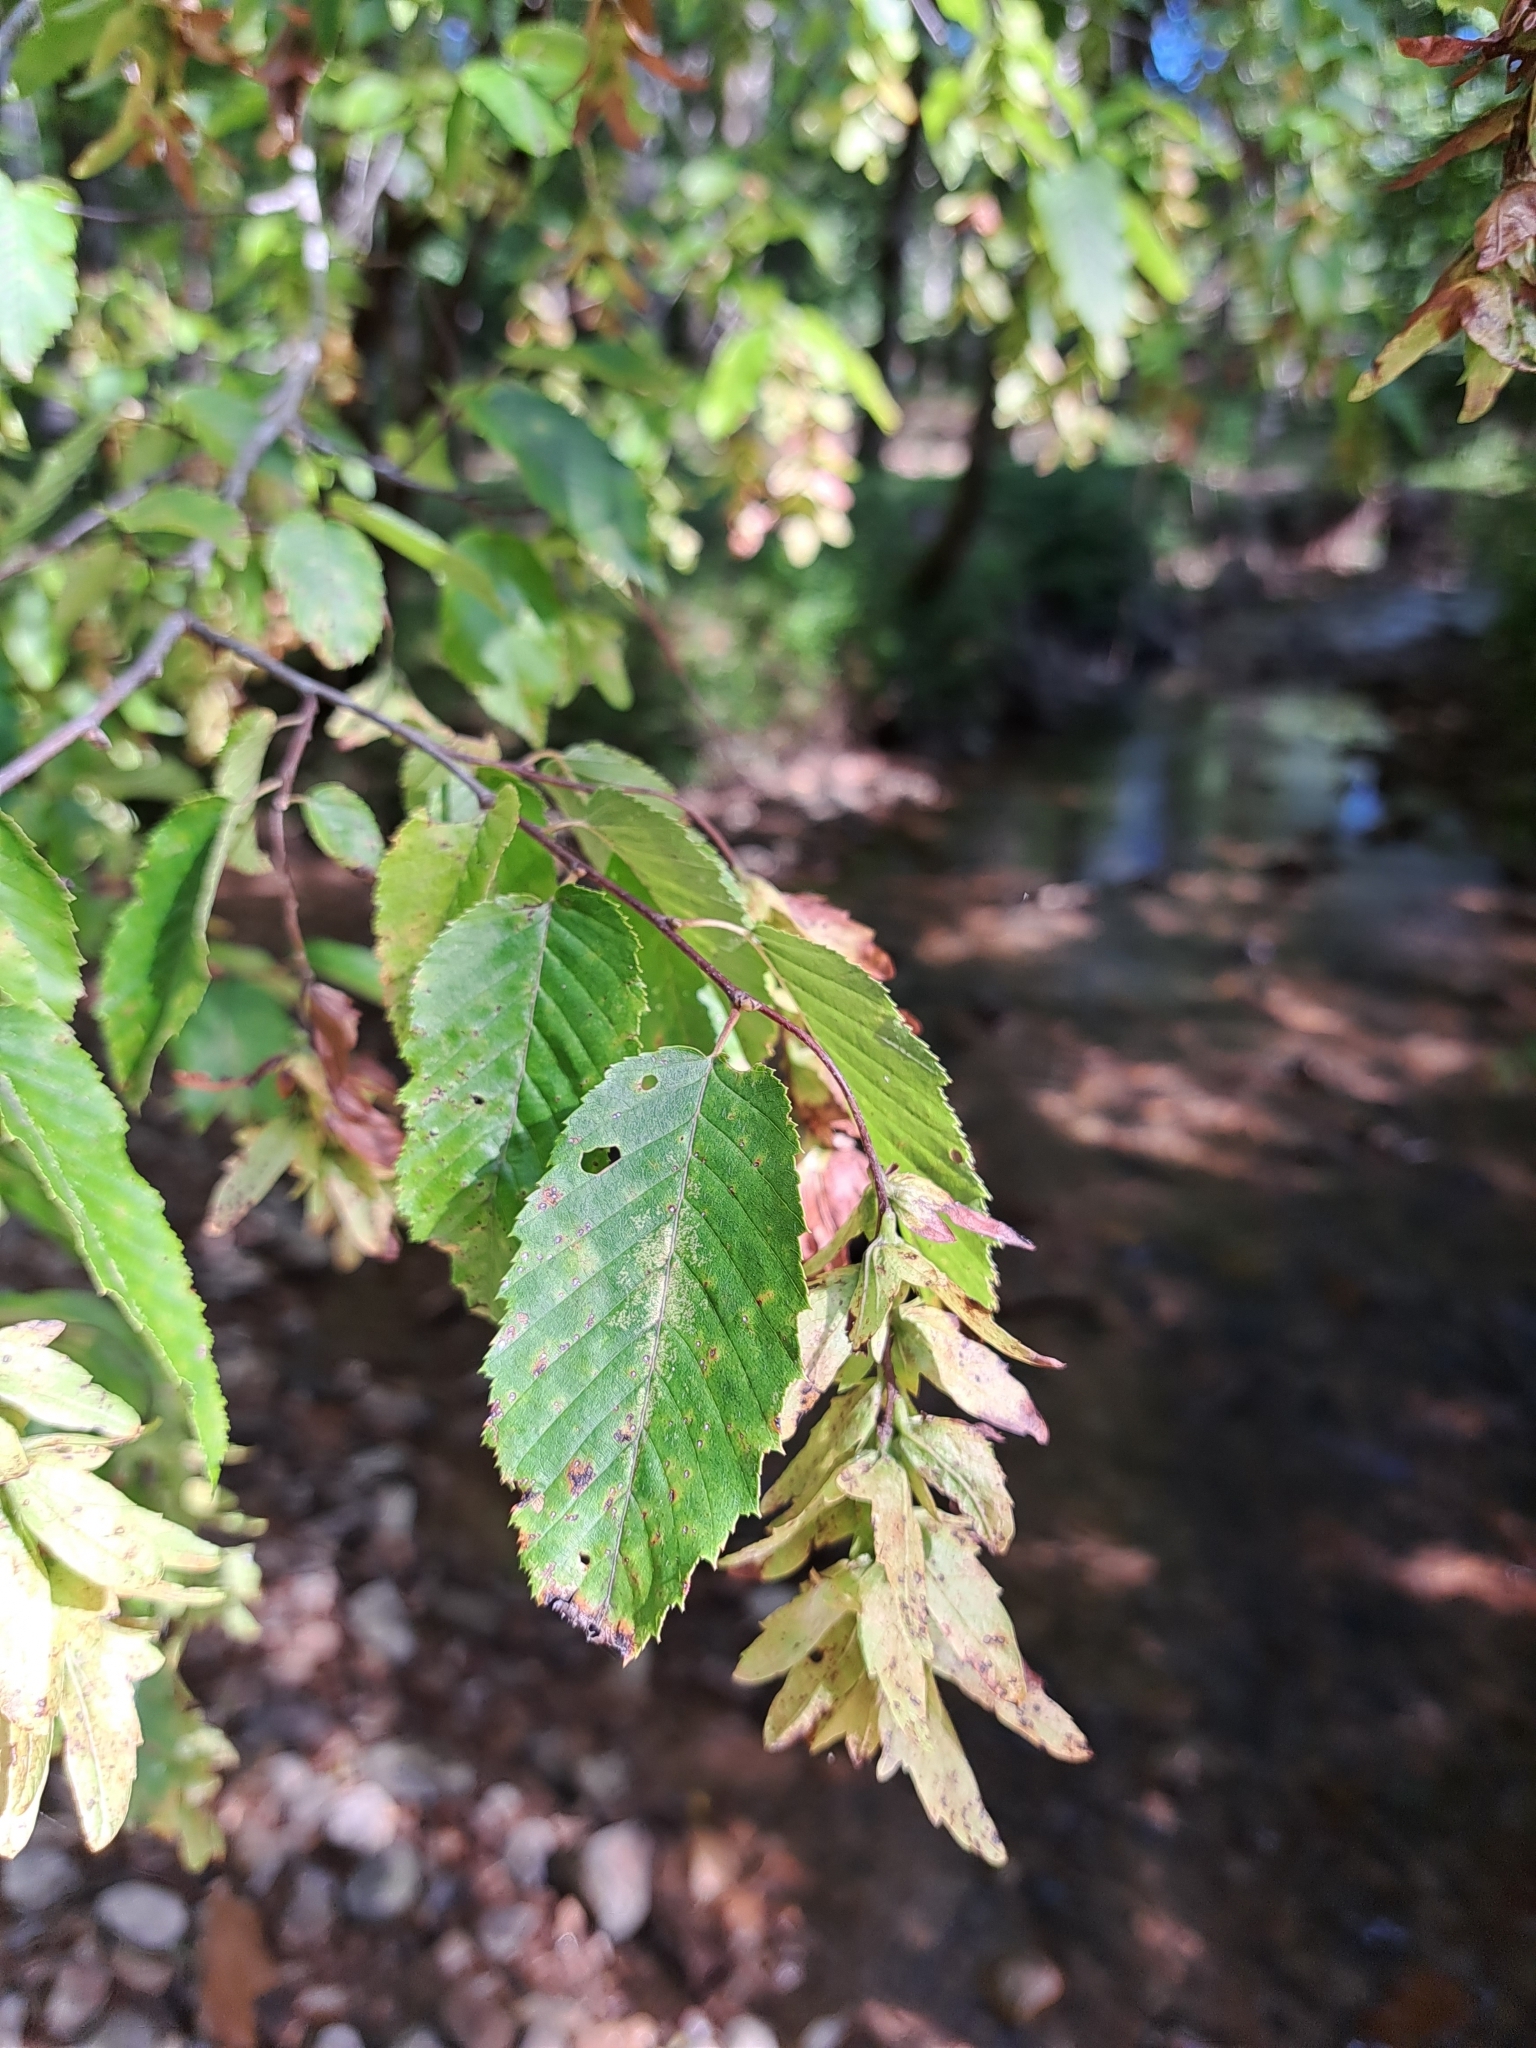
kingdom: Plantae
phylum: Tracheophyta
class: Magnoliopsida
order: Fagales
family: Betulaceae
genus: Carpinus
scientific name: Carpinus caroliniana
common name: American hornbeam
